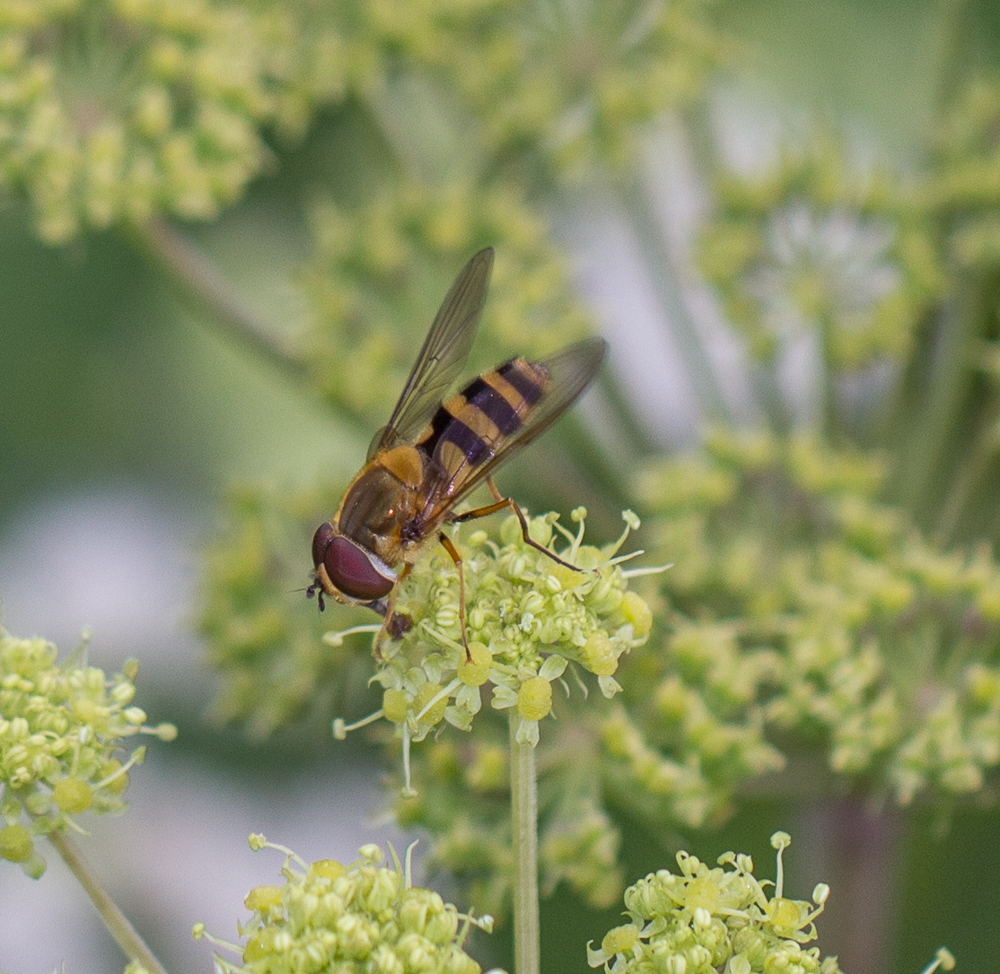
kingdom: Animalia
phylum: Arthropoda
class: Insecta
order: Diptera
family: Syrphidae
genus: Epistrophe
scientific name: Epistrophe grossulariae
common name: Black-horned smoothtail
